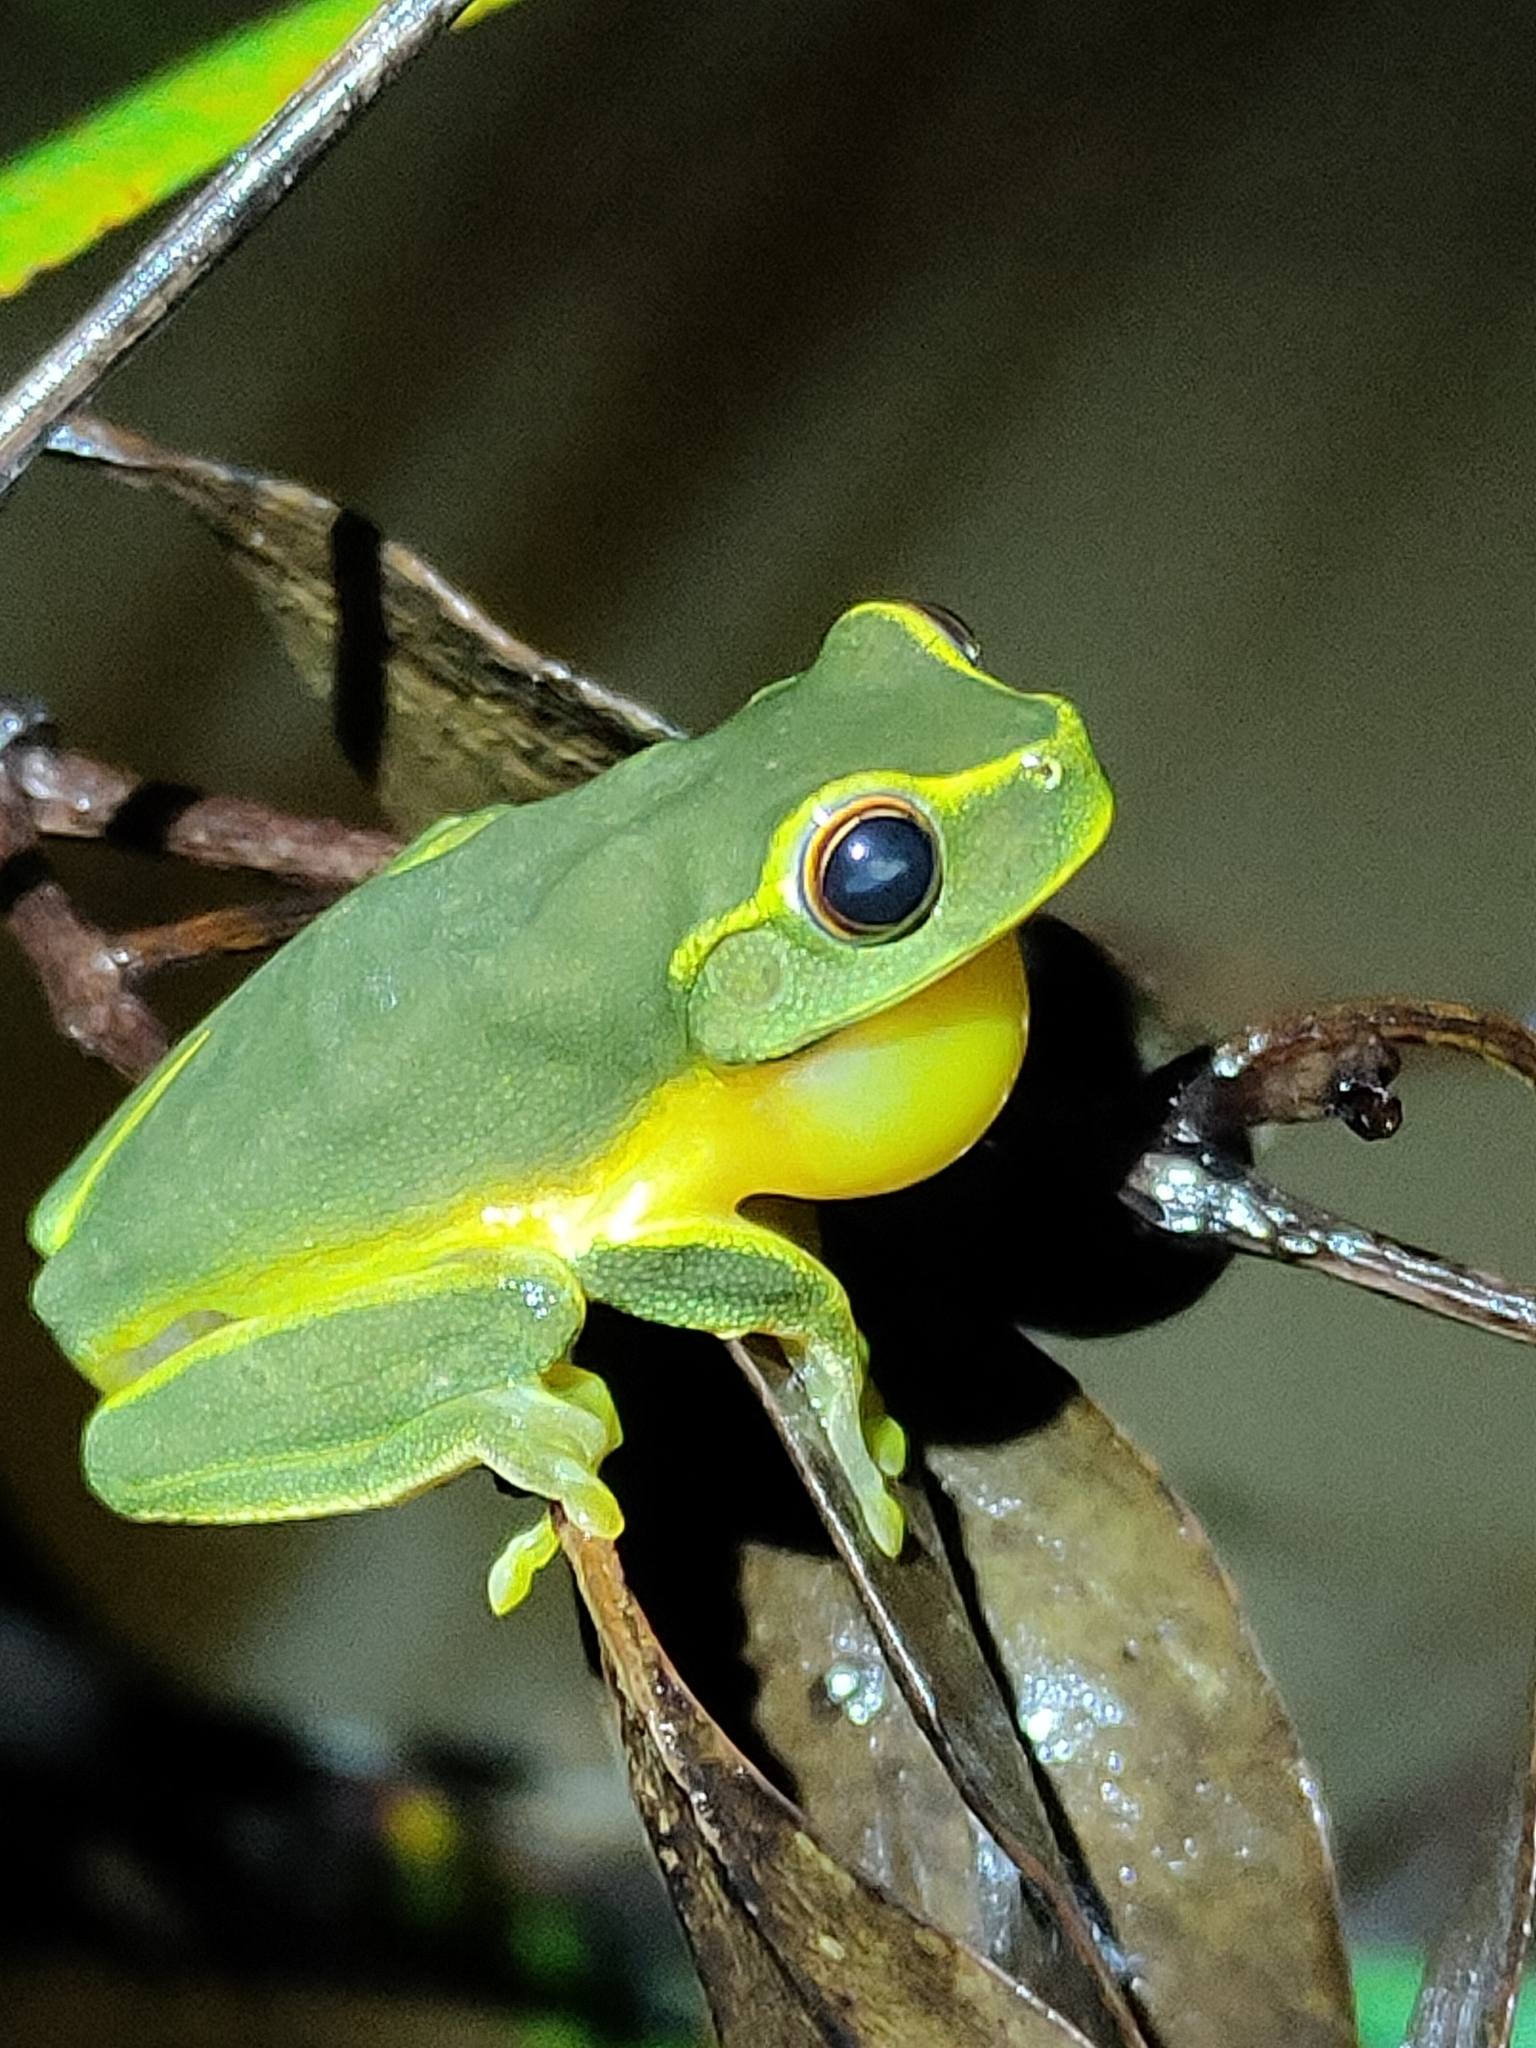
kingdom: Animalia
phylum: Chordata
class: Amphibia
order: Anura
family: Pelodryadidae
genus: Ranoidea
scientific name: Ranoidea gracilenta
